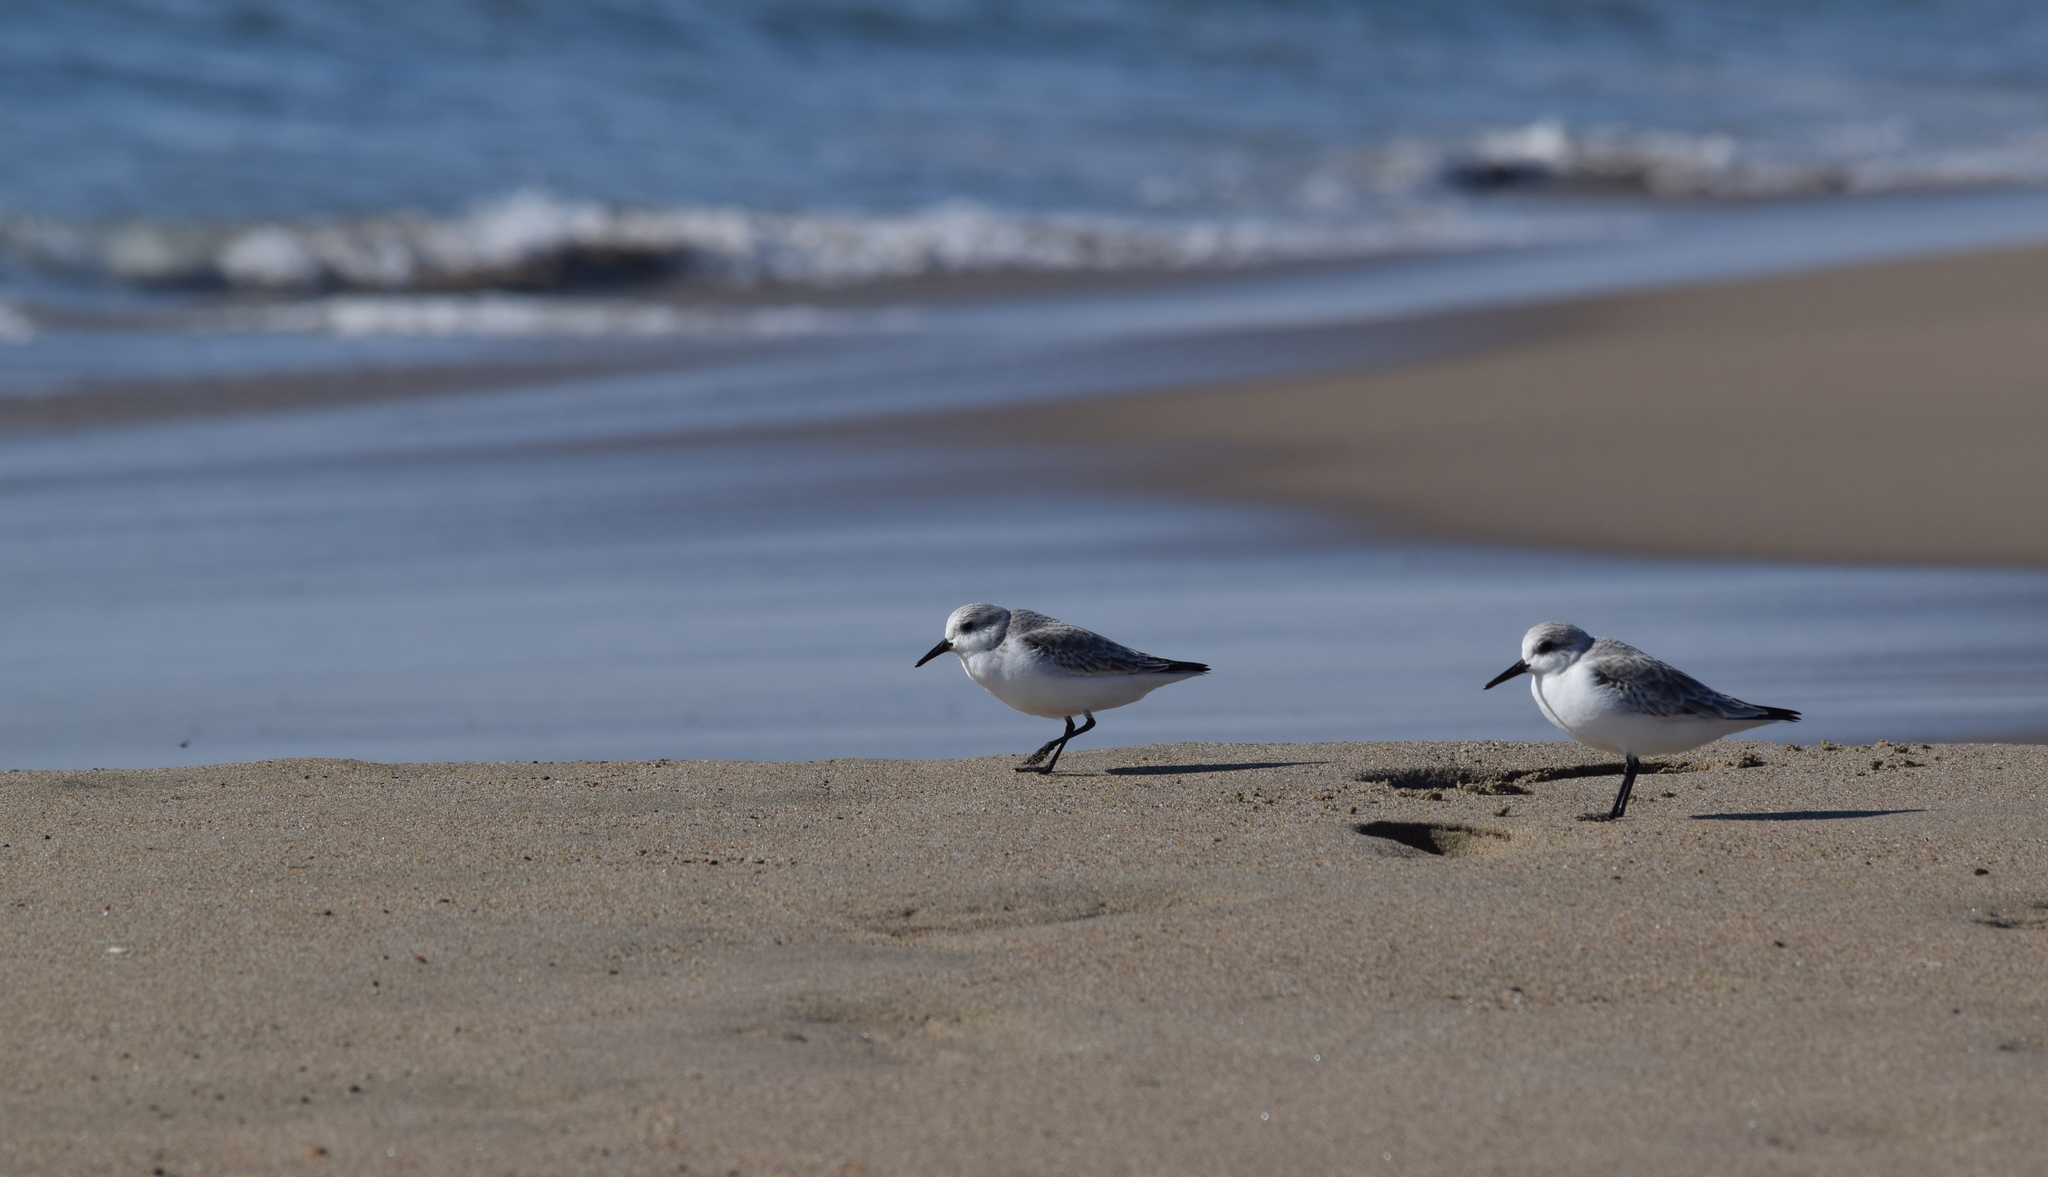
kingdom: Animalia
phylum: Chordata
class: Aves
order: Charadriiformes
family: Scolopacidae
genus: Calidris
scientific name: Calidris alba
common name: Sanderling
